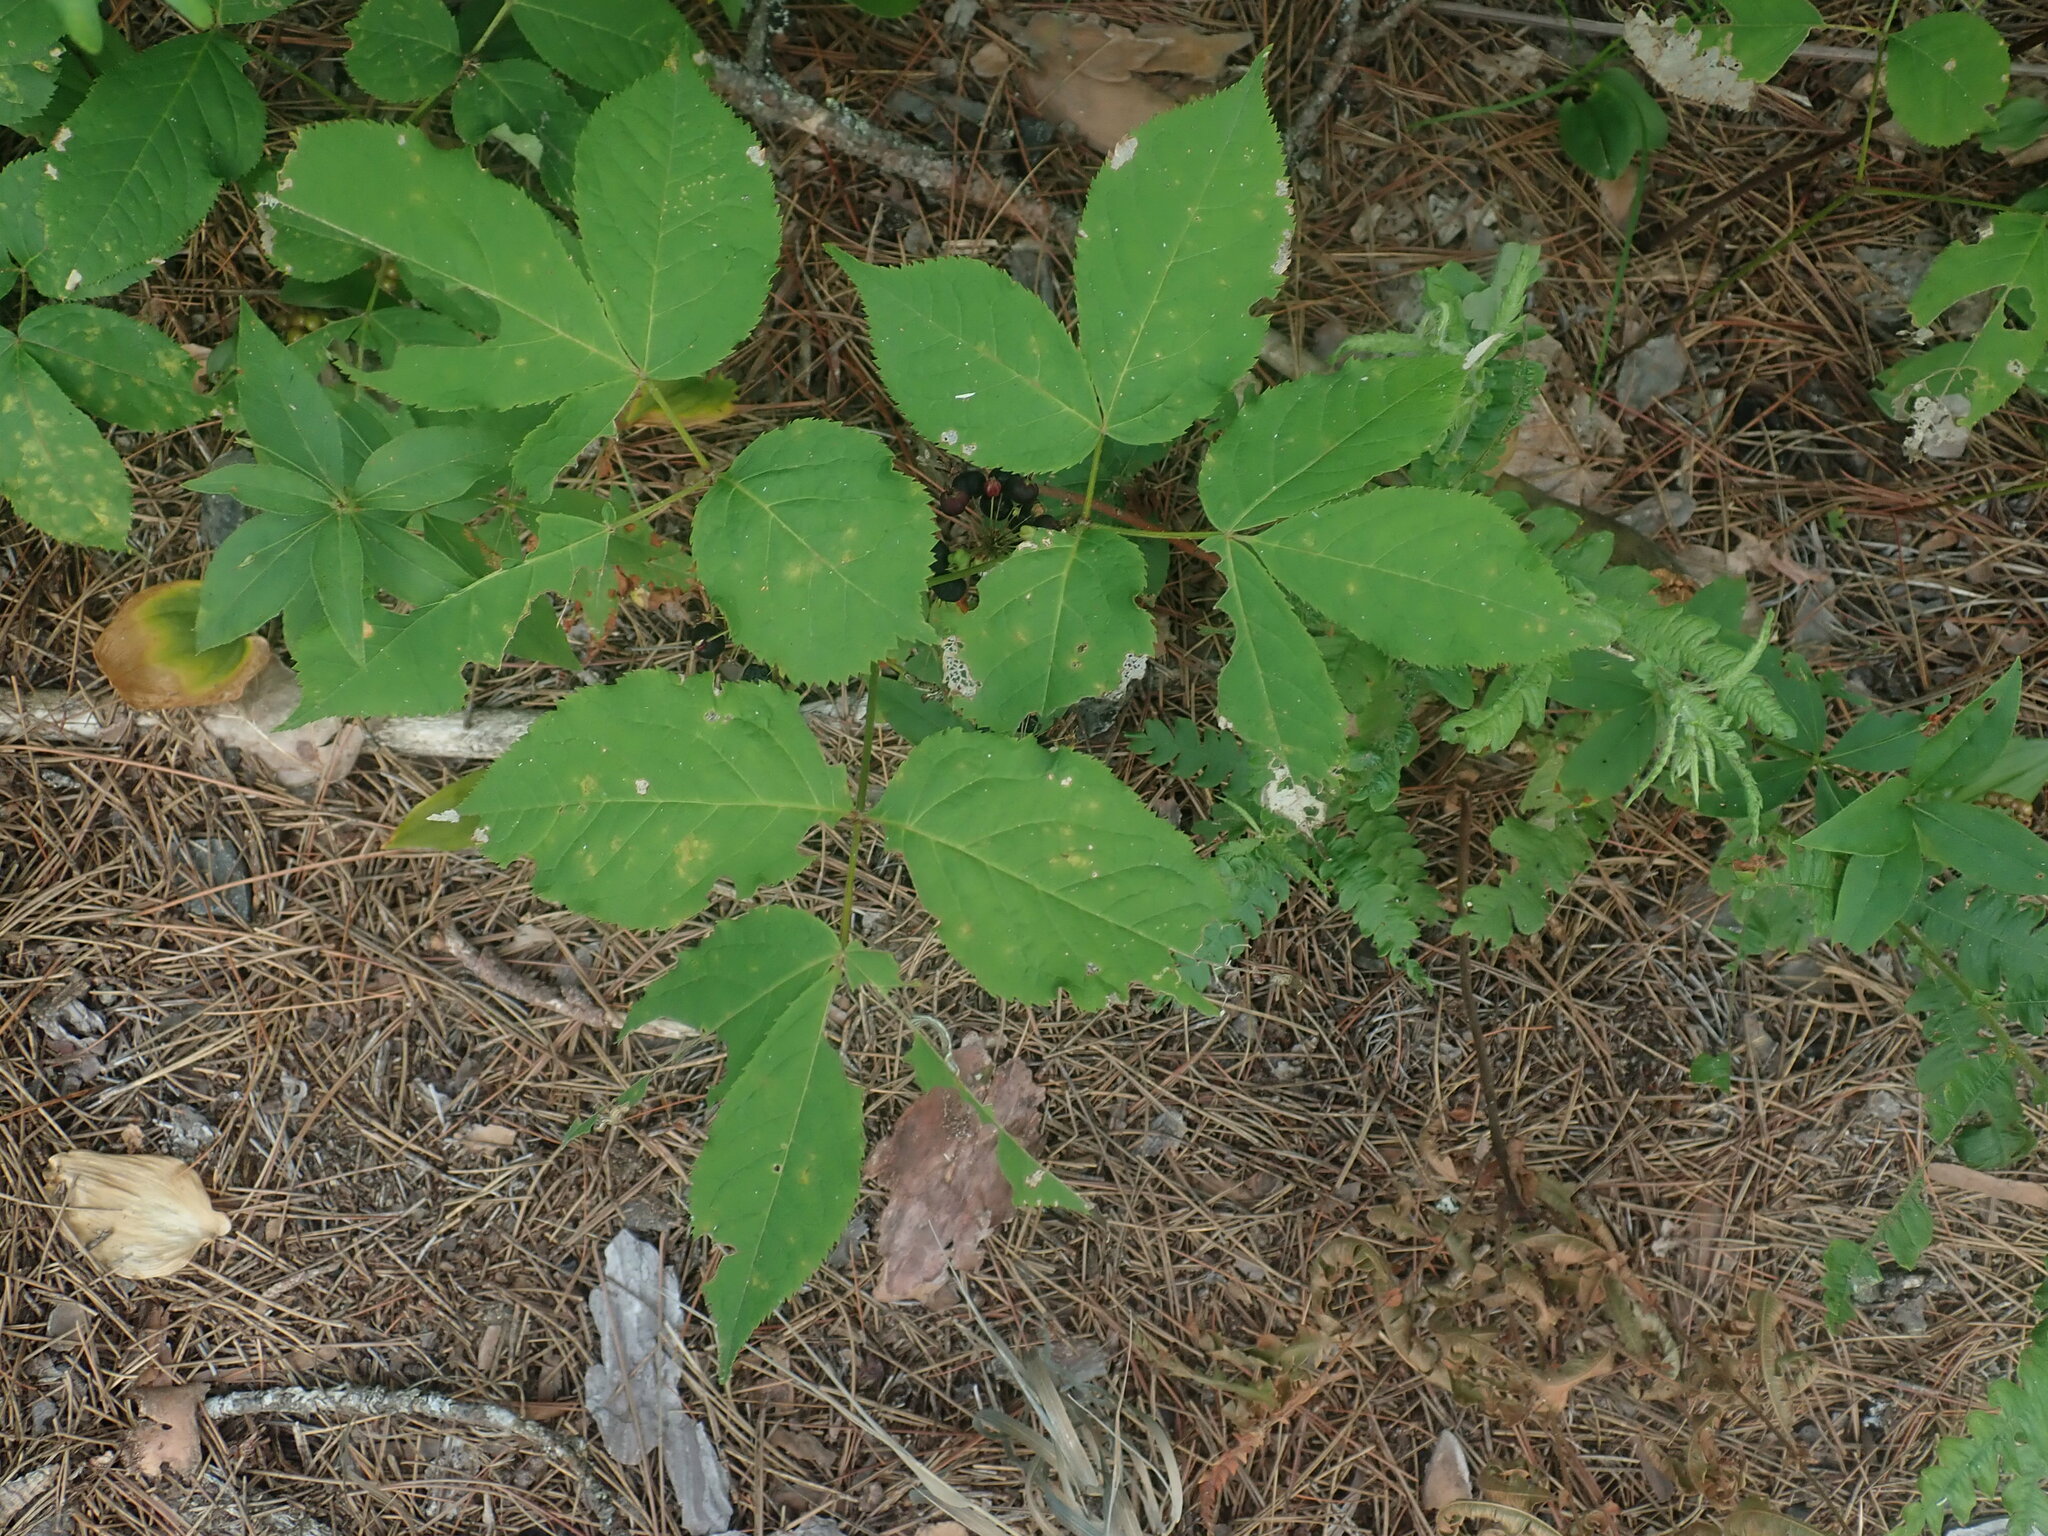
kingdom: Plantae
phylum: Tracheophyta
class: Magnoliopsida
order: Apiales
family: Araliaceae
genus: Aralia
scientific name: Aralia nudicaulis
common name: Wild sarsaparilla
